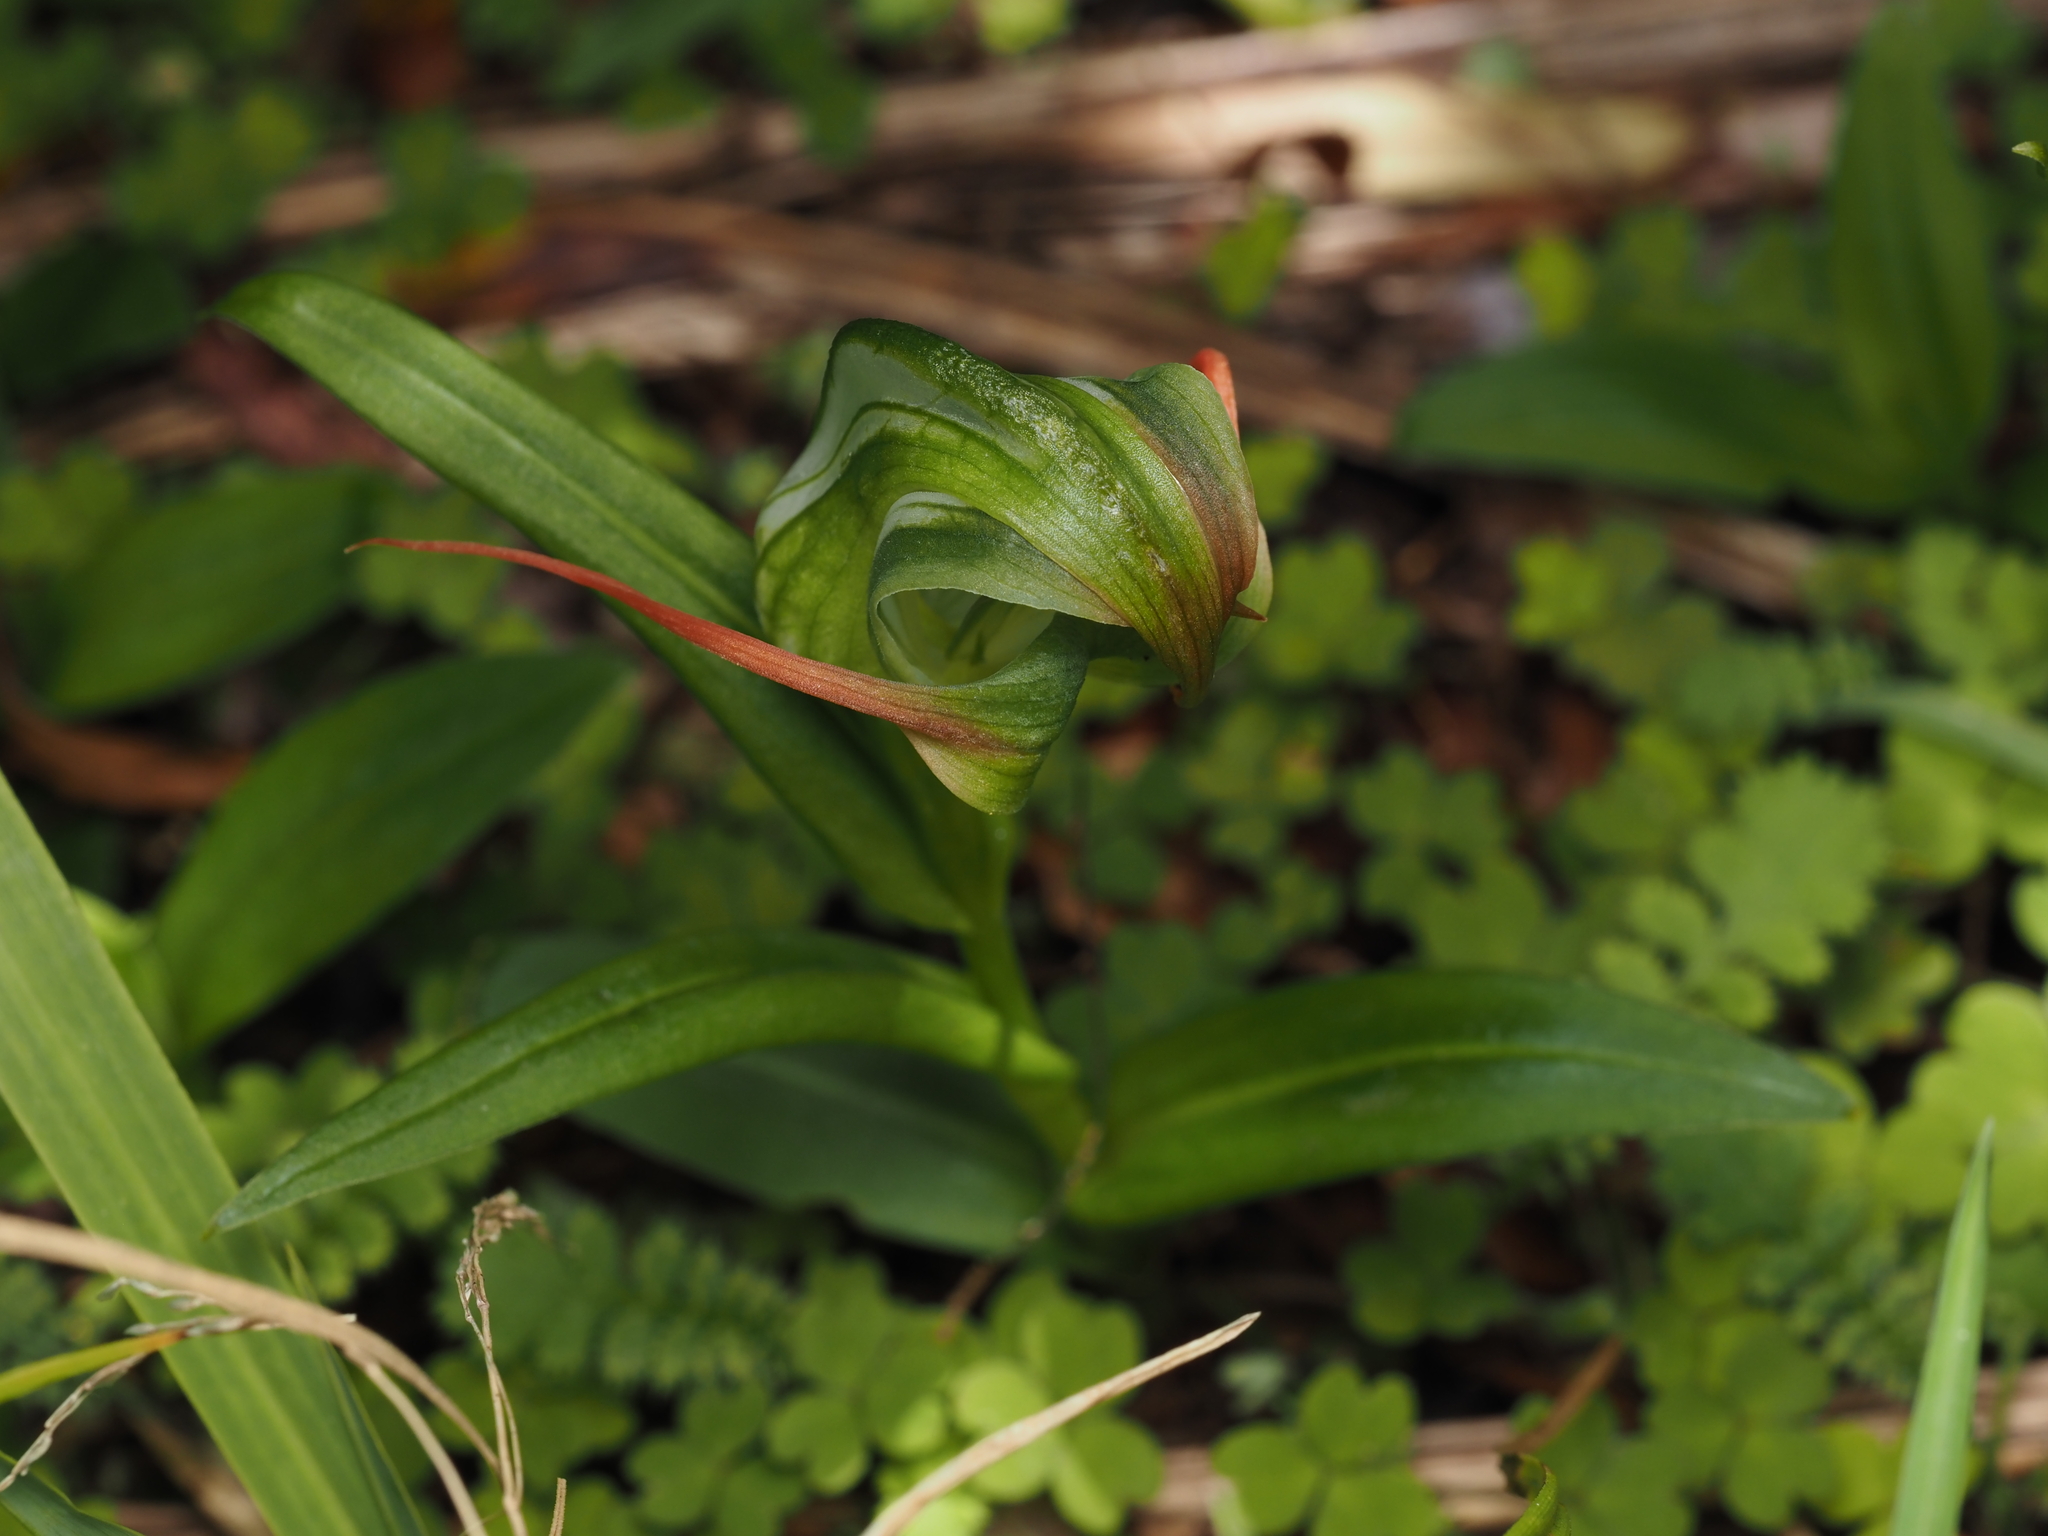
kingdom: Plantae
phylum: Tracheophyta
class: Liliopsida
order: Asparagales
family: Orchidaceae
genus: Pterostylis
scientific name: Pterostylis patens
